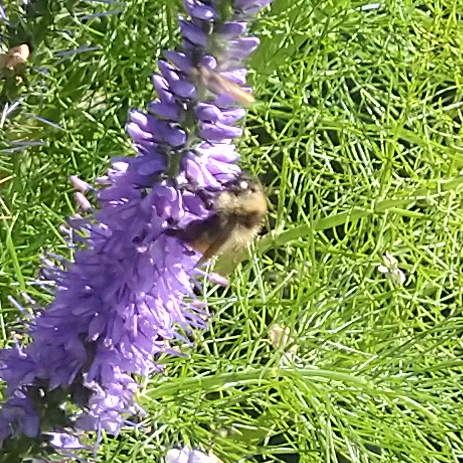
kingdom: Animalia
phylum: Arthropoda
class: Insecta
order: Hymenoptera
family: Apidae
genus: Bombus
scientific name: Bombus rufocinctus
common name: Red-belted bumble bee
